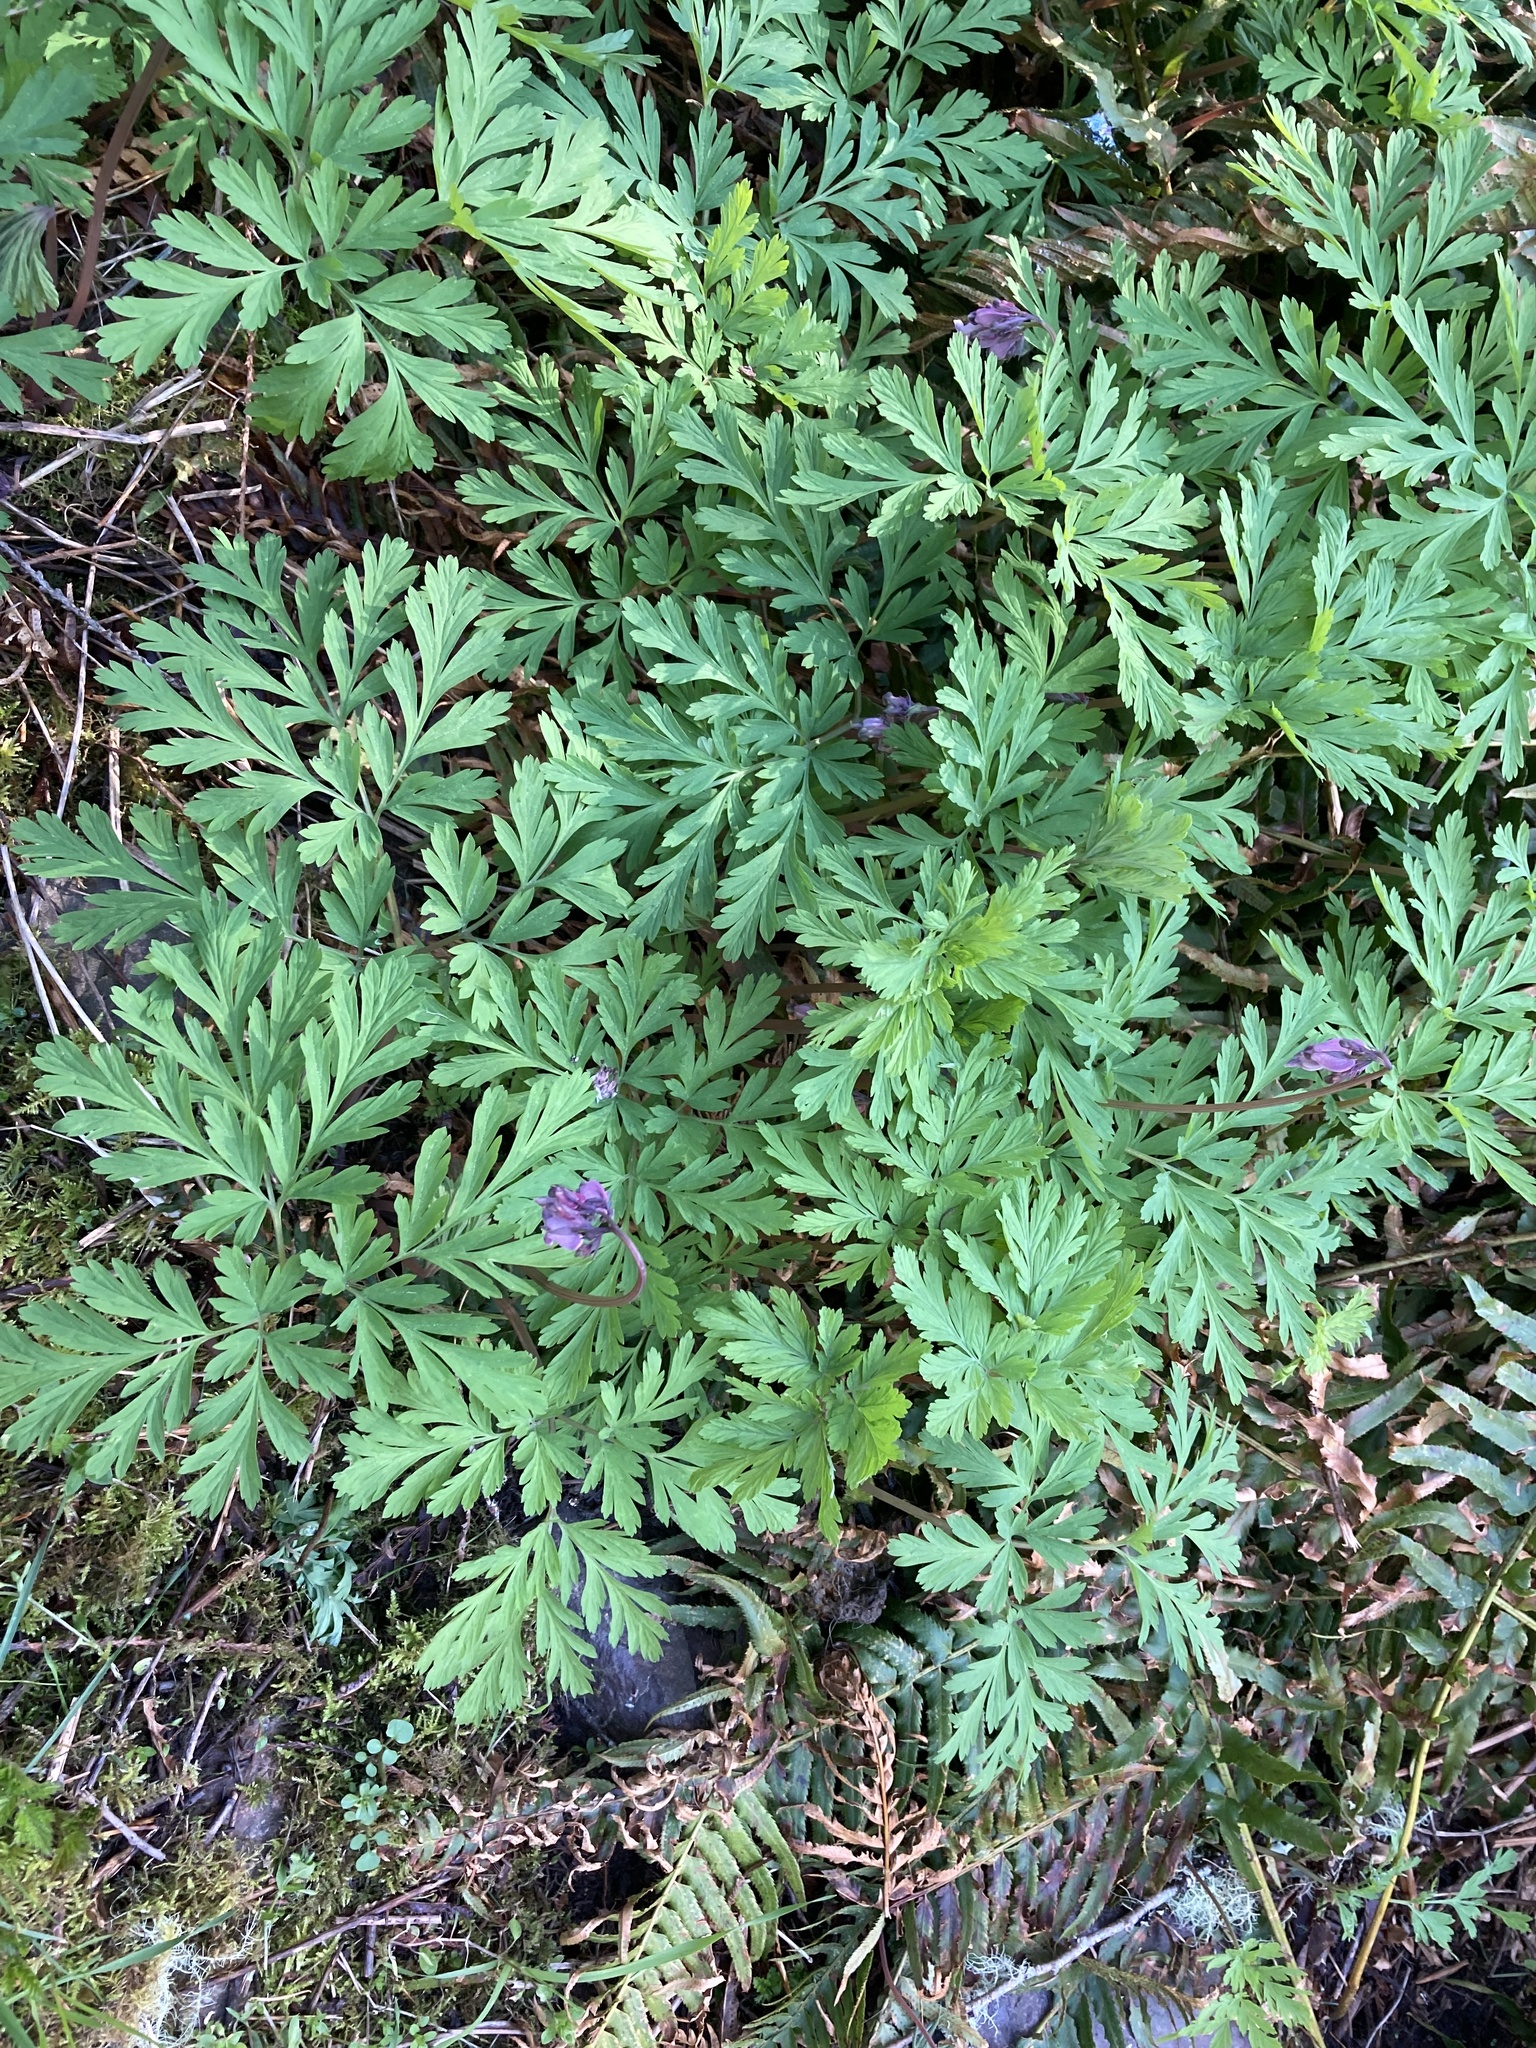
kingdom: Plantae
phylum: Tracheophyta
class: Magnoliopsida
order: Ranunculales
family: Papaveraceae
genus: Dicentra
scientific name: Dicentra formosa
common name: Bleeding-heart
